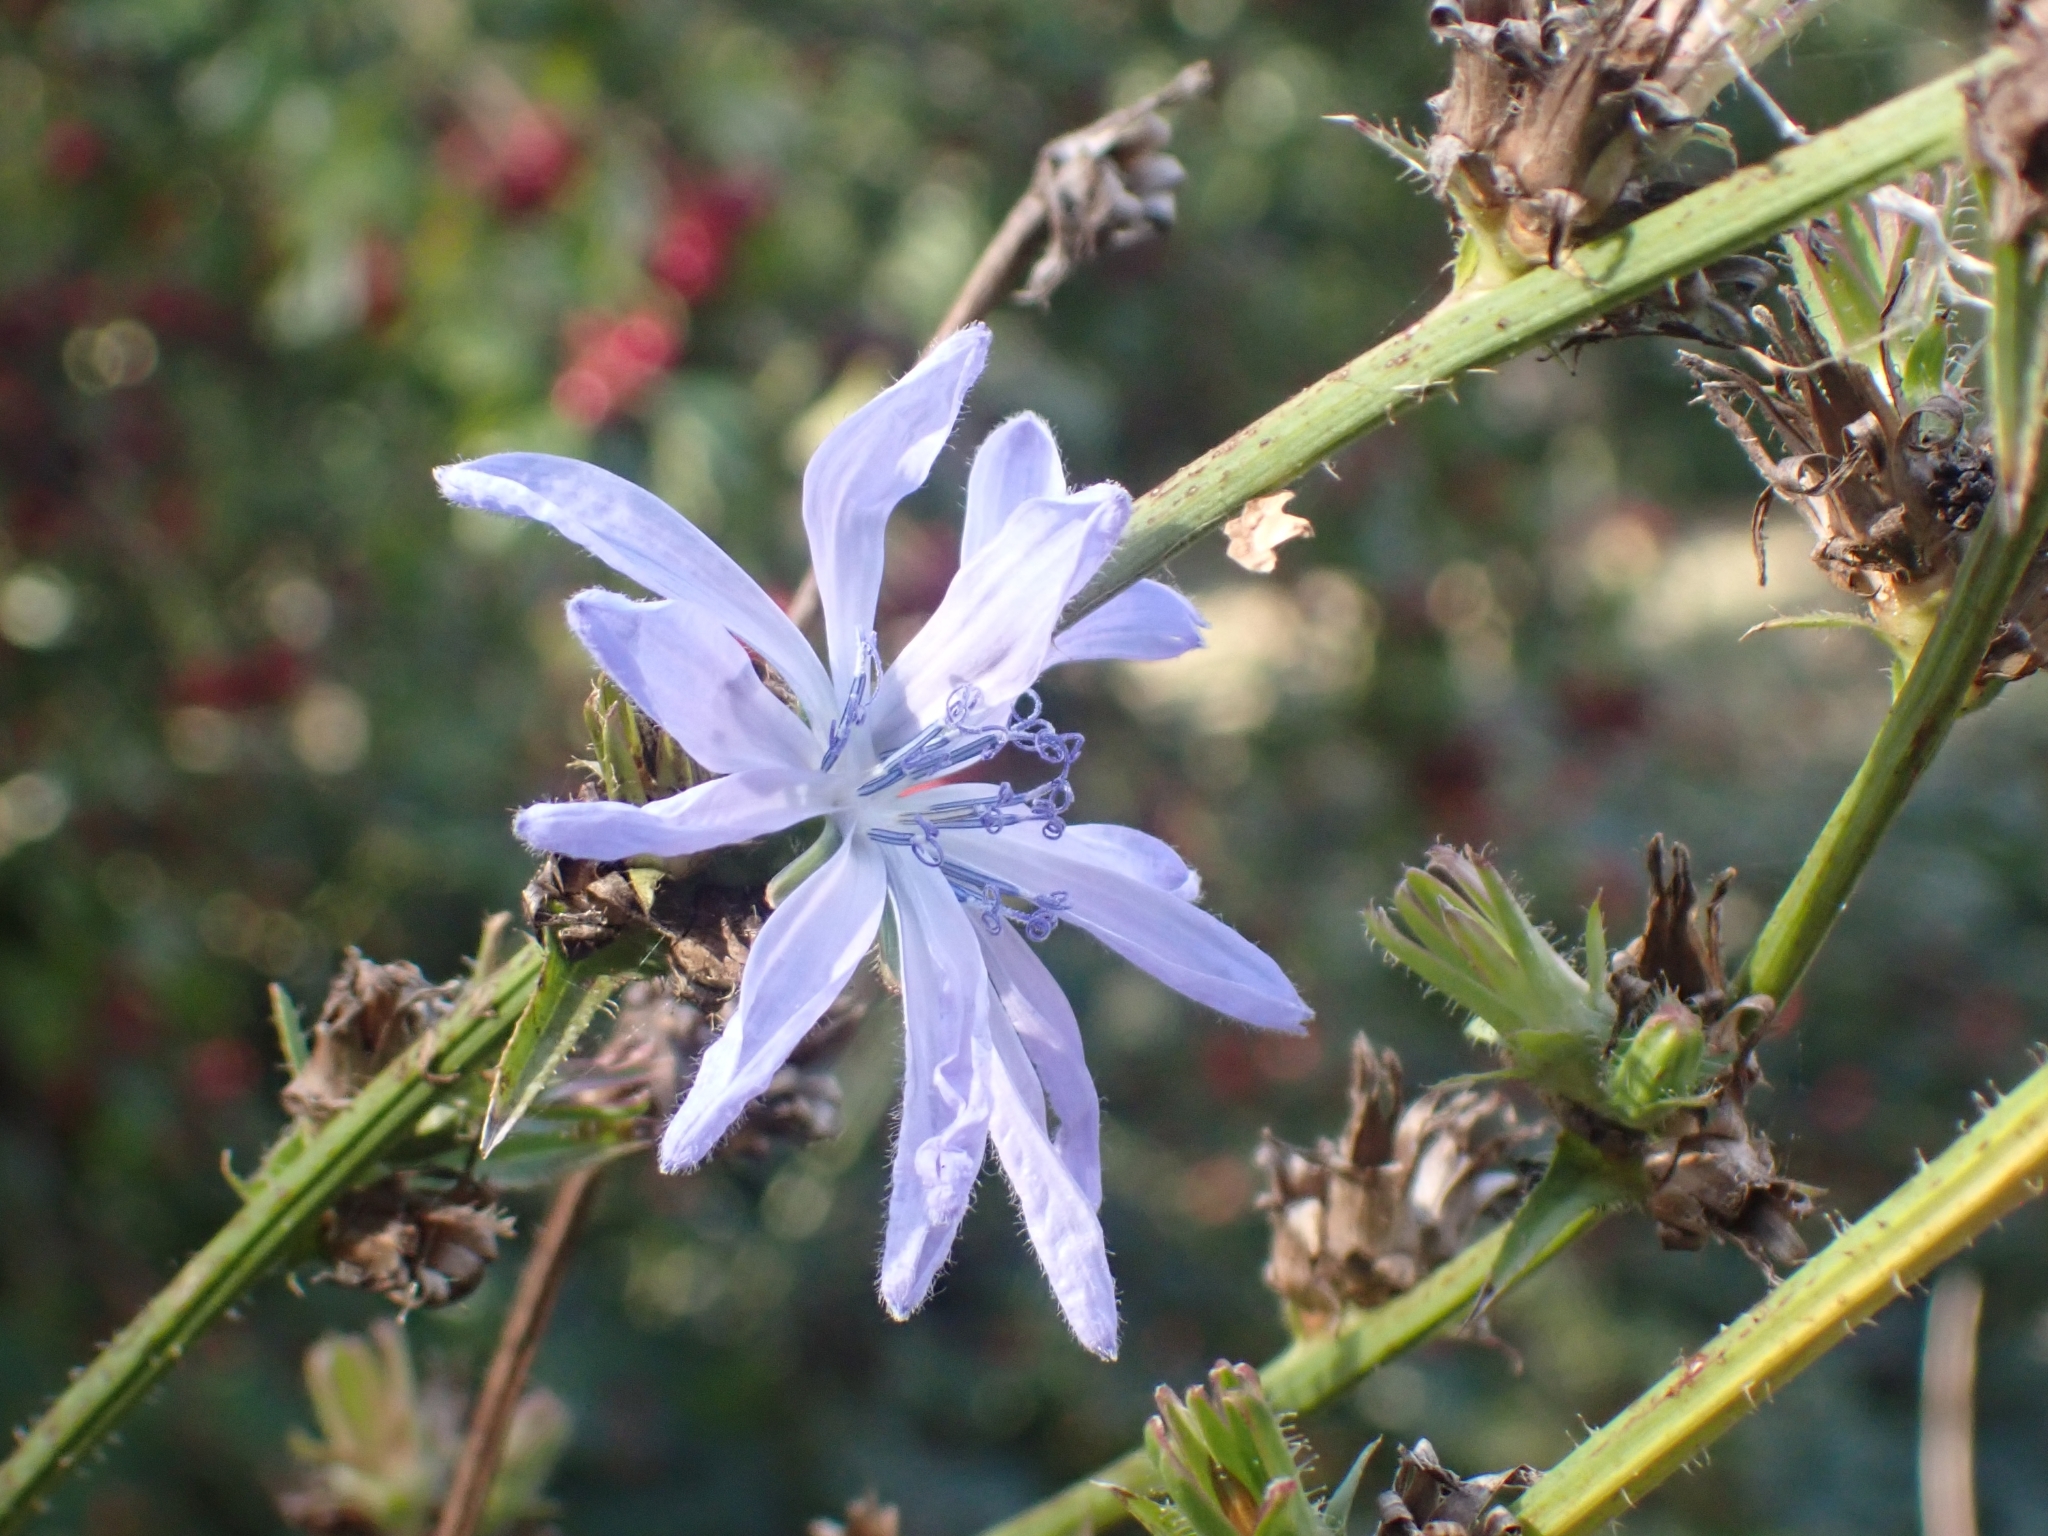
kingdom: Plantae
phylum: Tracheophyta
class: Magnoliopsida
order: Asterales
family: Asteraceae
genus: Cichorium
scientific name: Cichorium intybus
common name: Chicory
